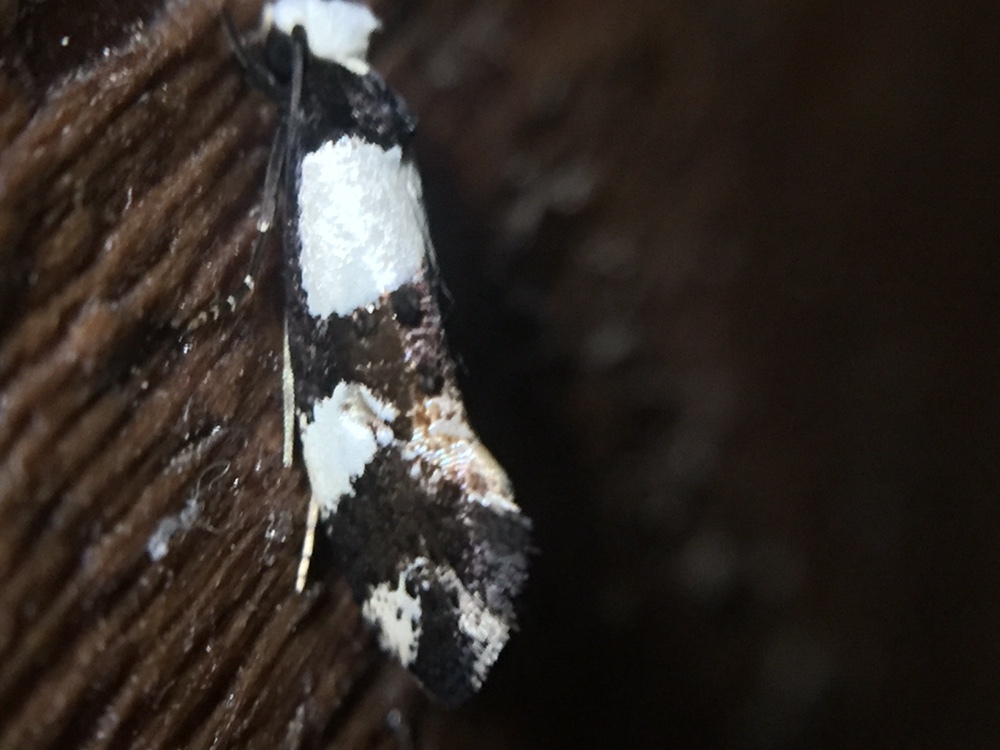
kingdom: Animalia
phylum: Arthropoda
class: Insecta
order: Lepidoptera
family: Tineidae
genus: Monopis
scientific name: Monopis icterogastra
